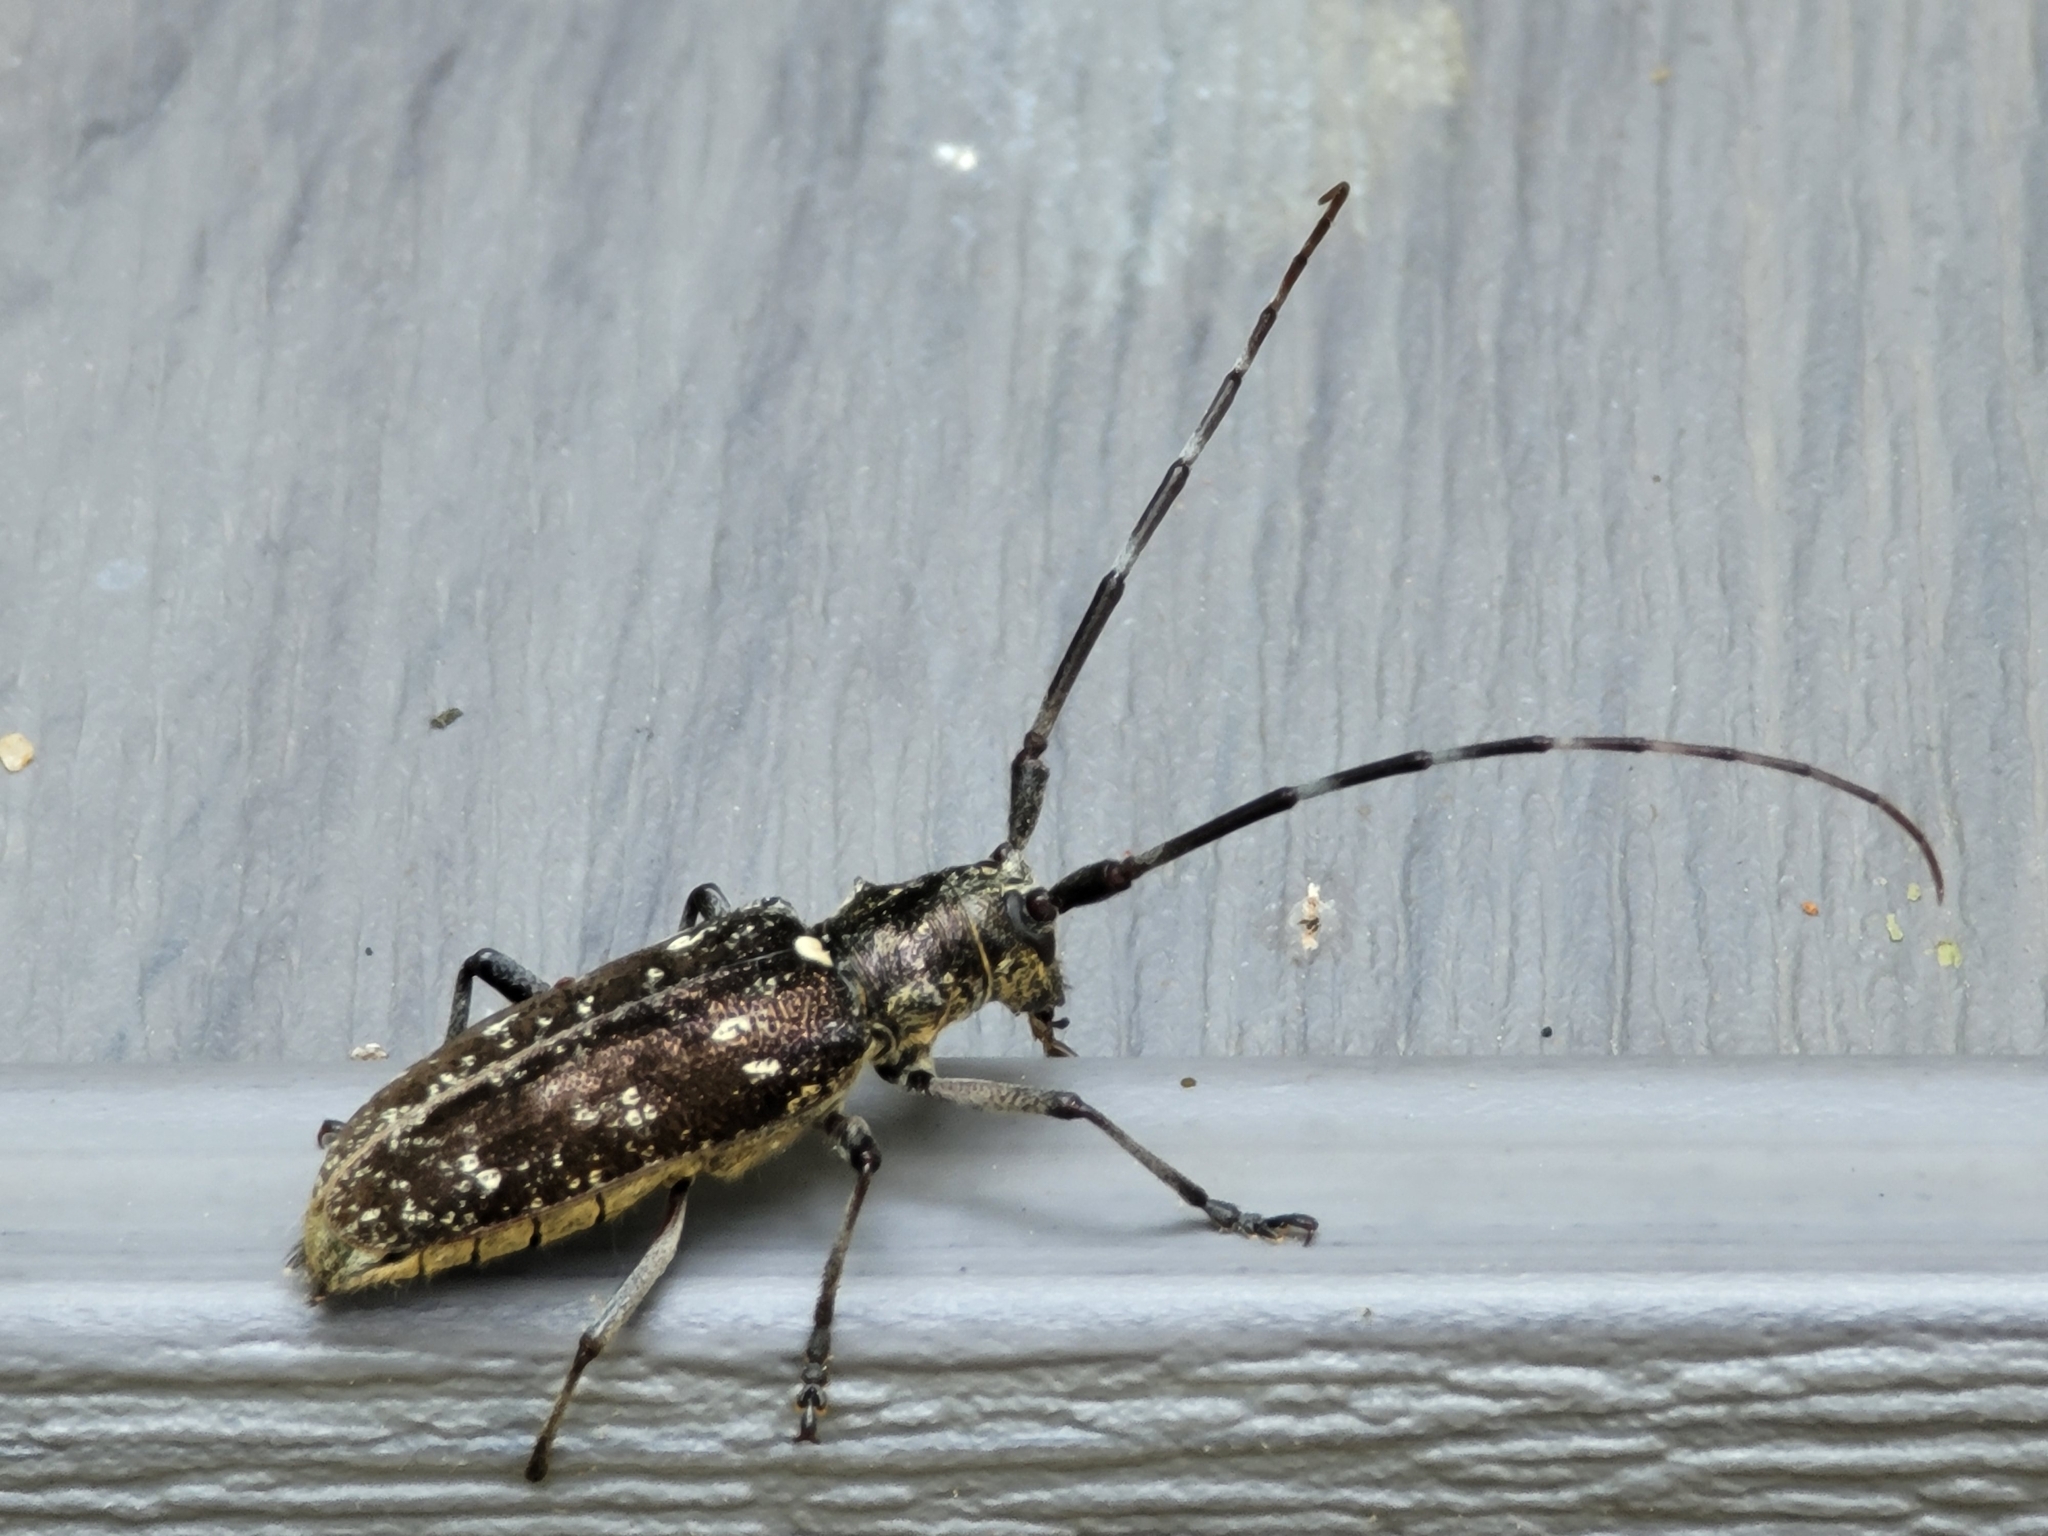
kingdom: Animalia
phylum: Arthropoda
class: Insecta
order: Coleoptera
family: Cerambycidae
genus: Monochamus
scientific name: Monochamus scutellatus
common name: White-spotted sawyer beetle
